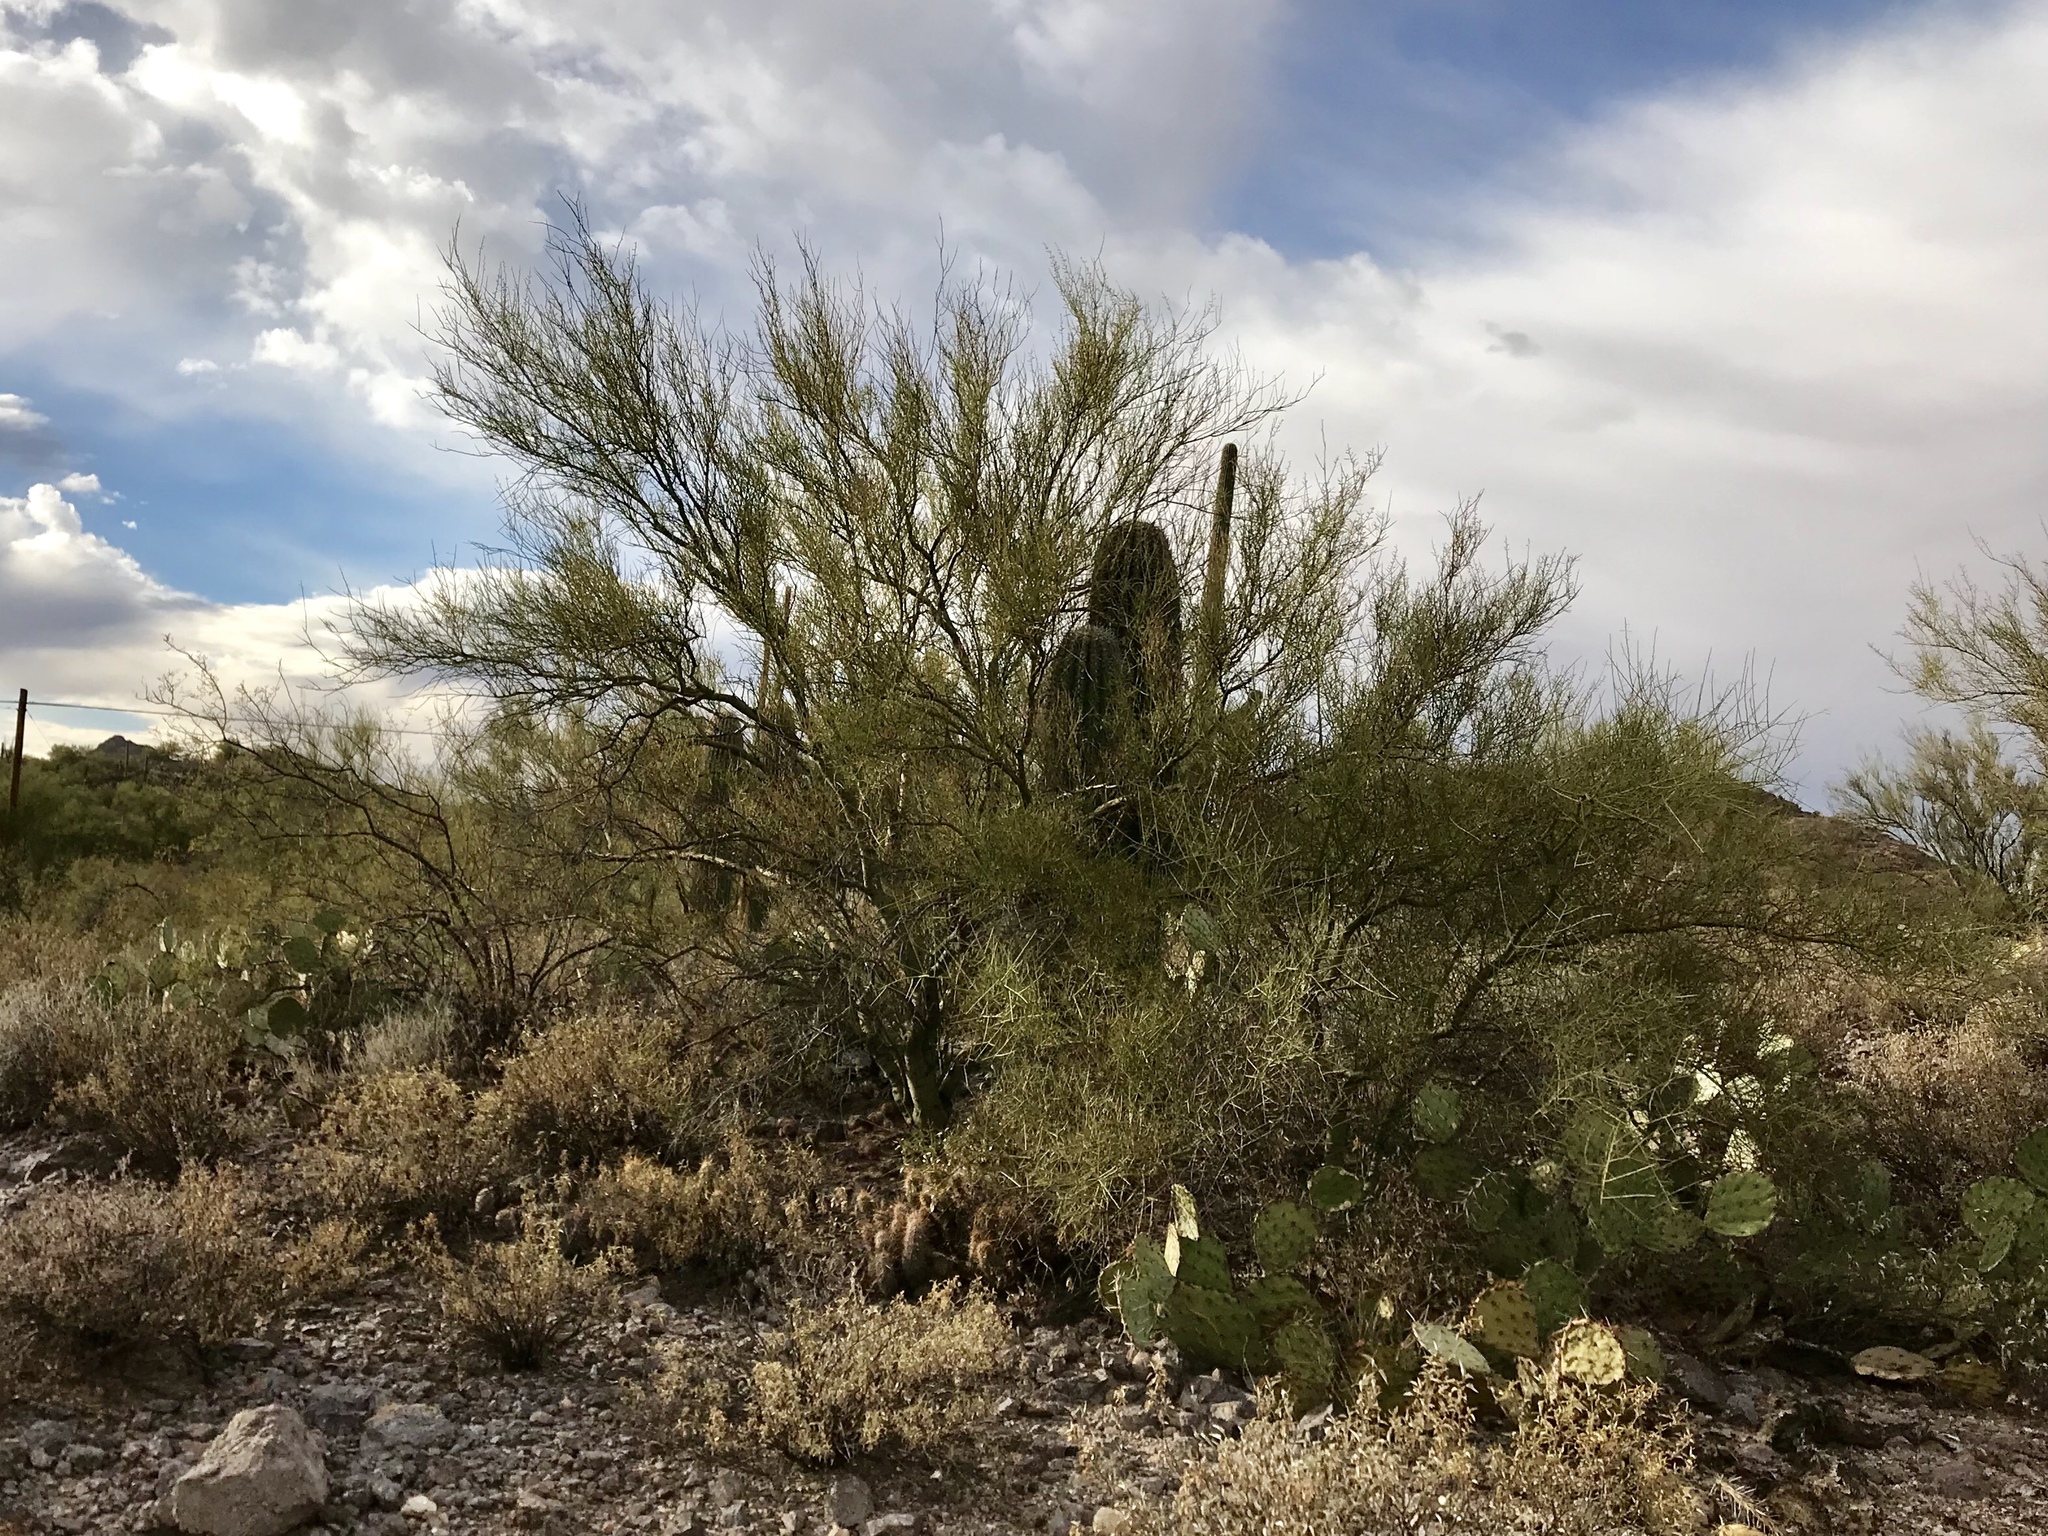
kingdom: Plantae
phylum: Tracheophyta
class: Magnoliopsida
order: Fabales
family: Fabaceae
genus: Parkinsonia
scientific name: Parkinsonia microphylla
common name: Yellow paloverde
